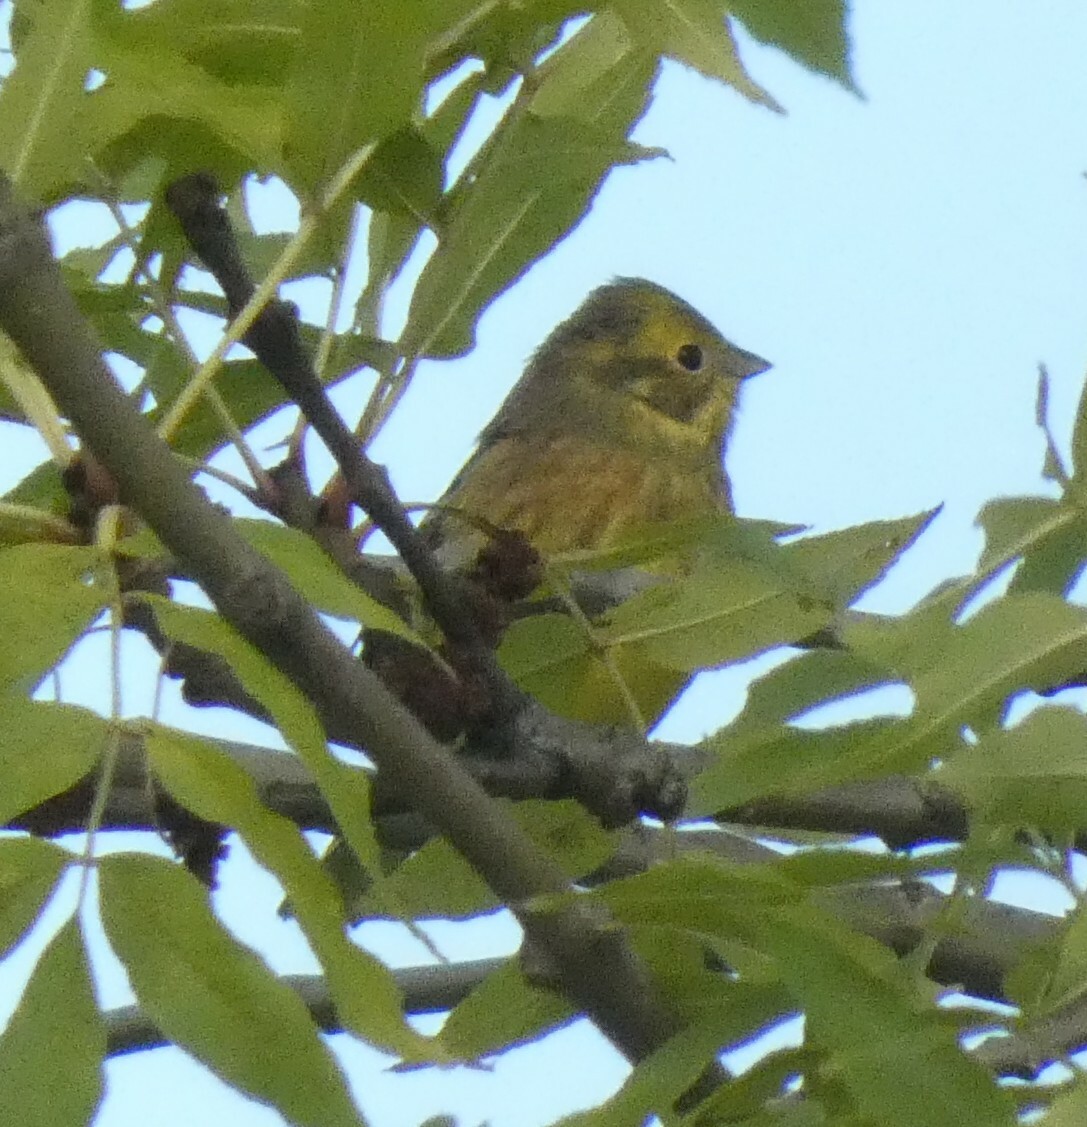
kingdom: Animalia
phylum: Chordata
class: Aves
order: Passeriformes
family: Emberizidae
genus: Emberiza
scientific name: Emberiza citrinella
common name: Yellowhammer
